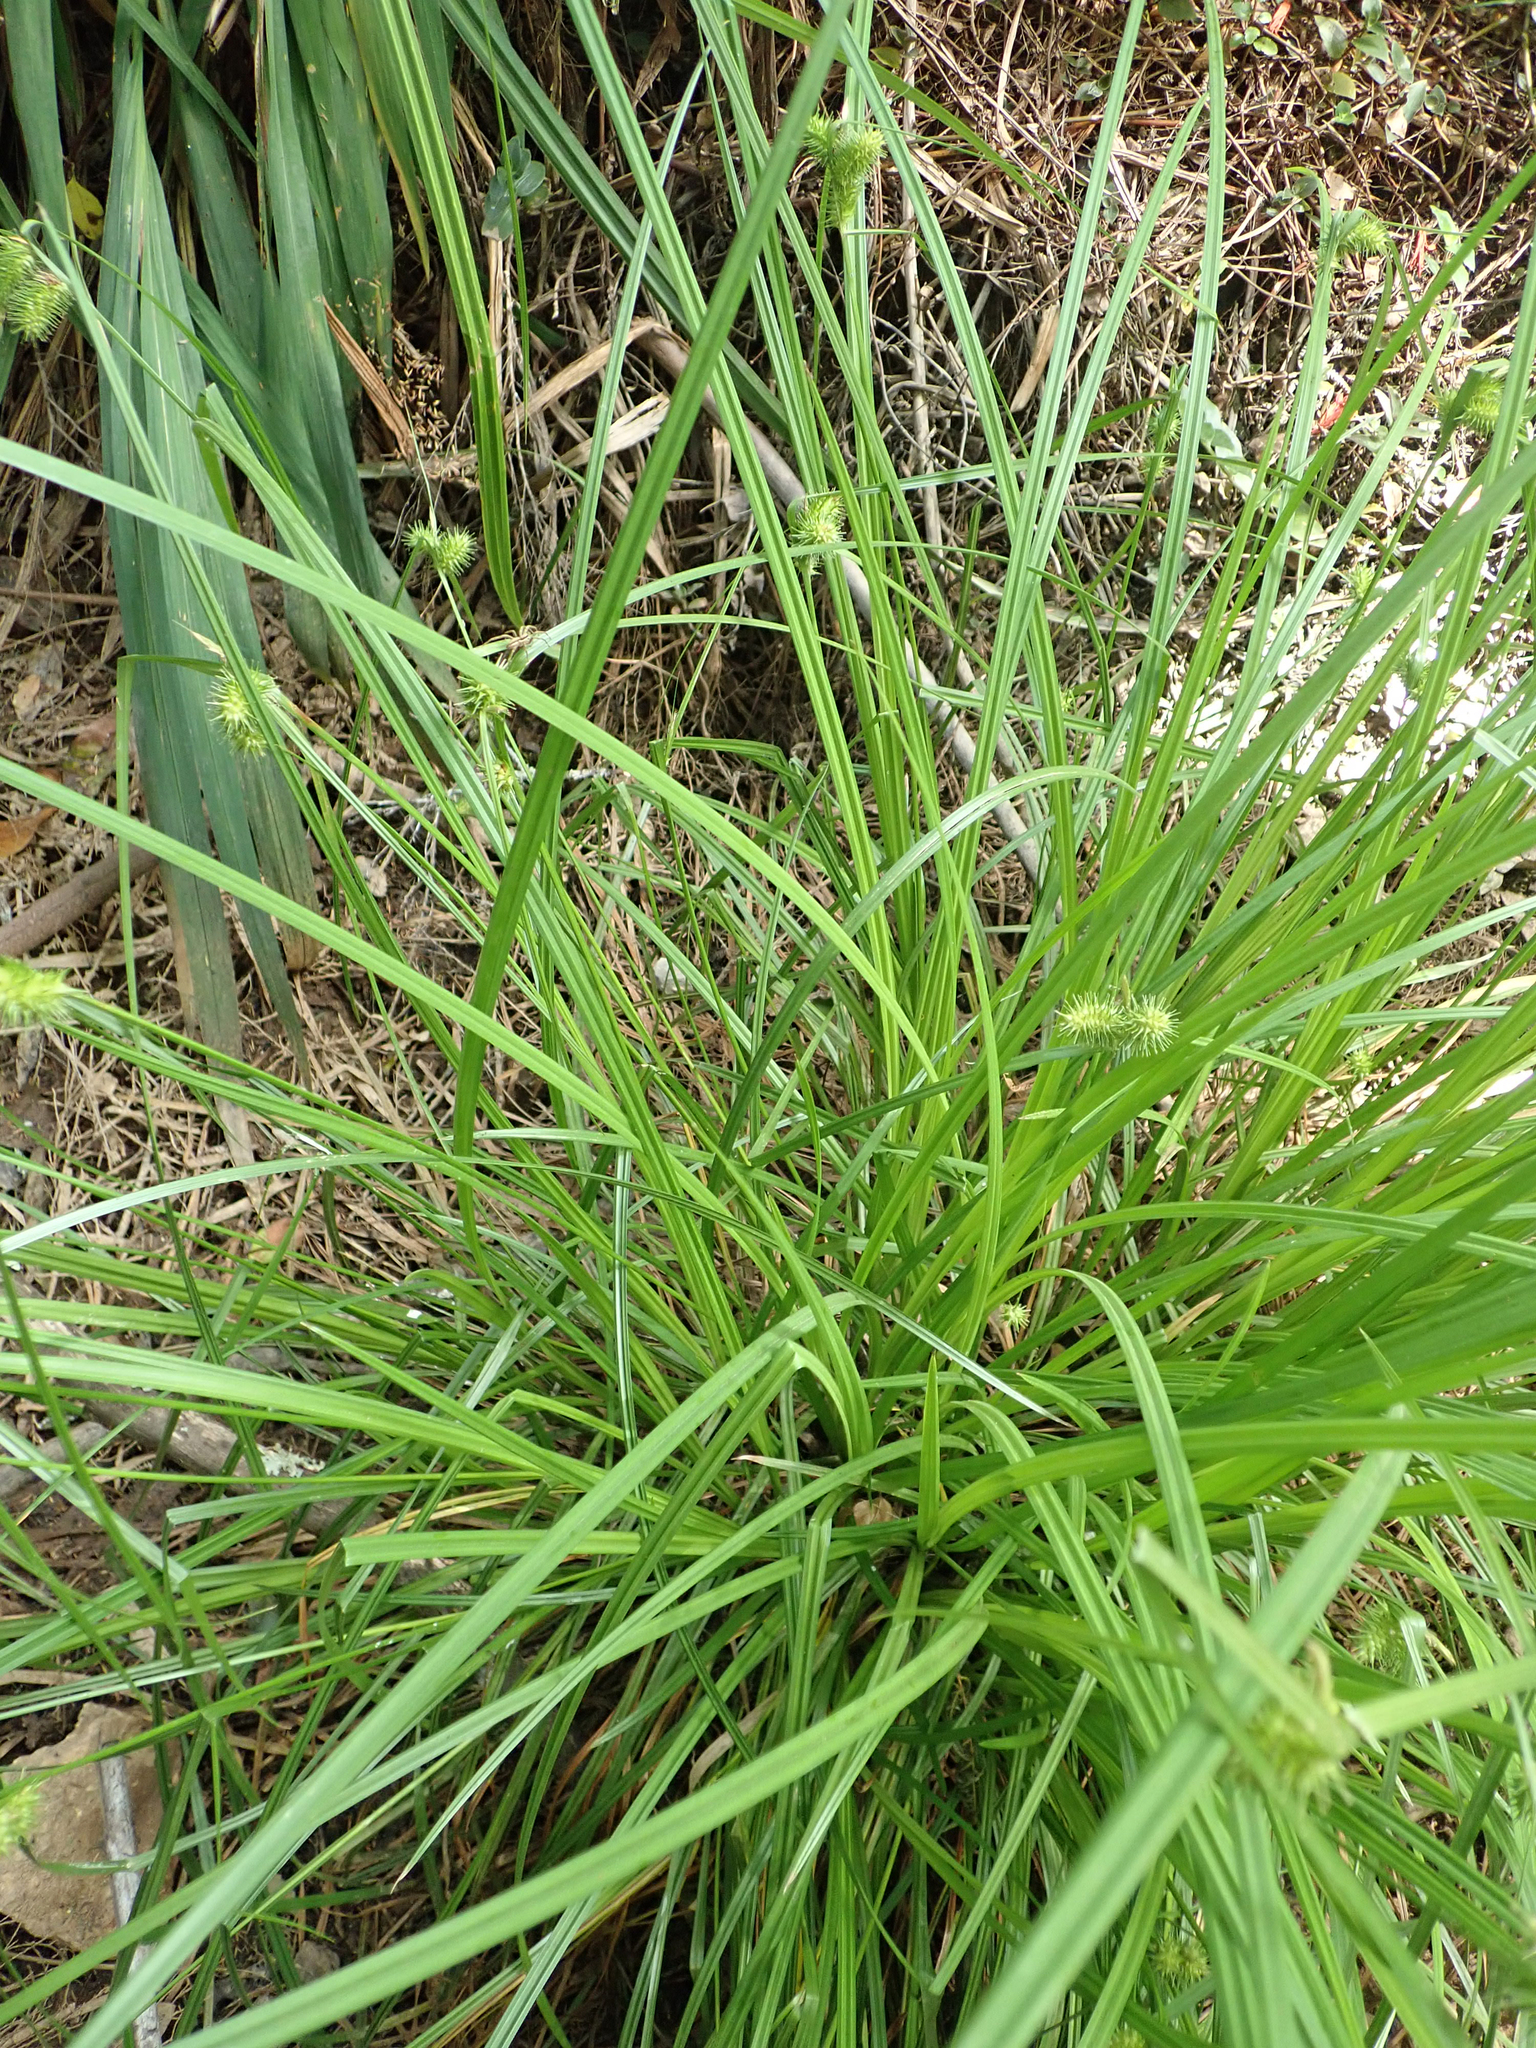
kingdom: Plantae
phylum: Tracheophyta
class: Liliopsida
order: Poales
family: Cyperaceae
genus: Carex
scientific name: Carex lurida
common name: Sallow sedge
